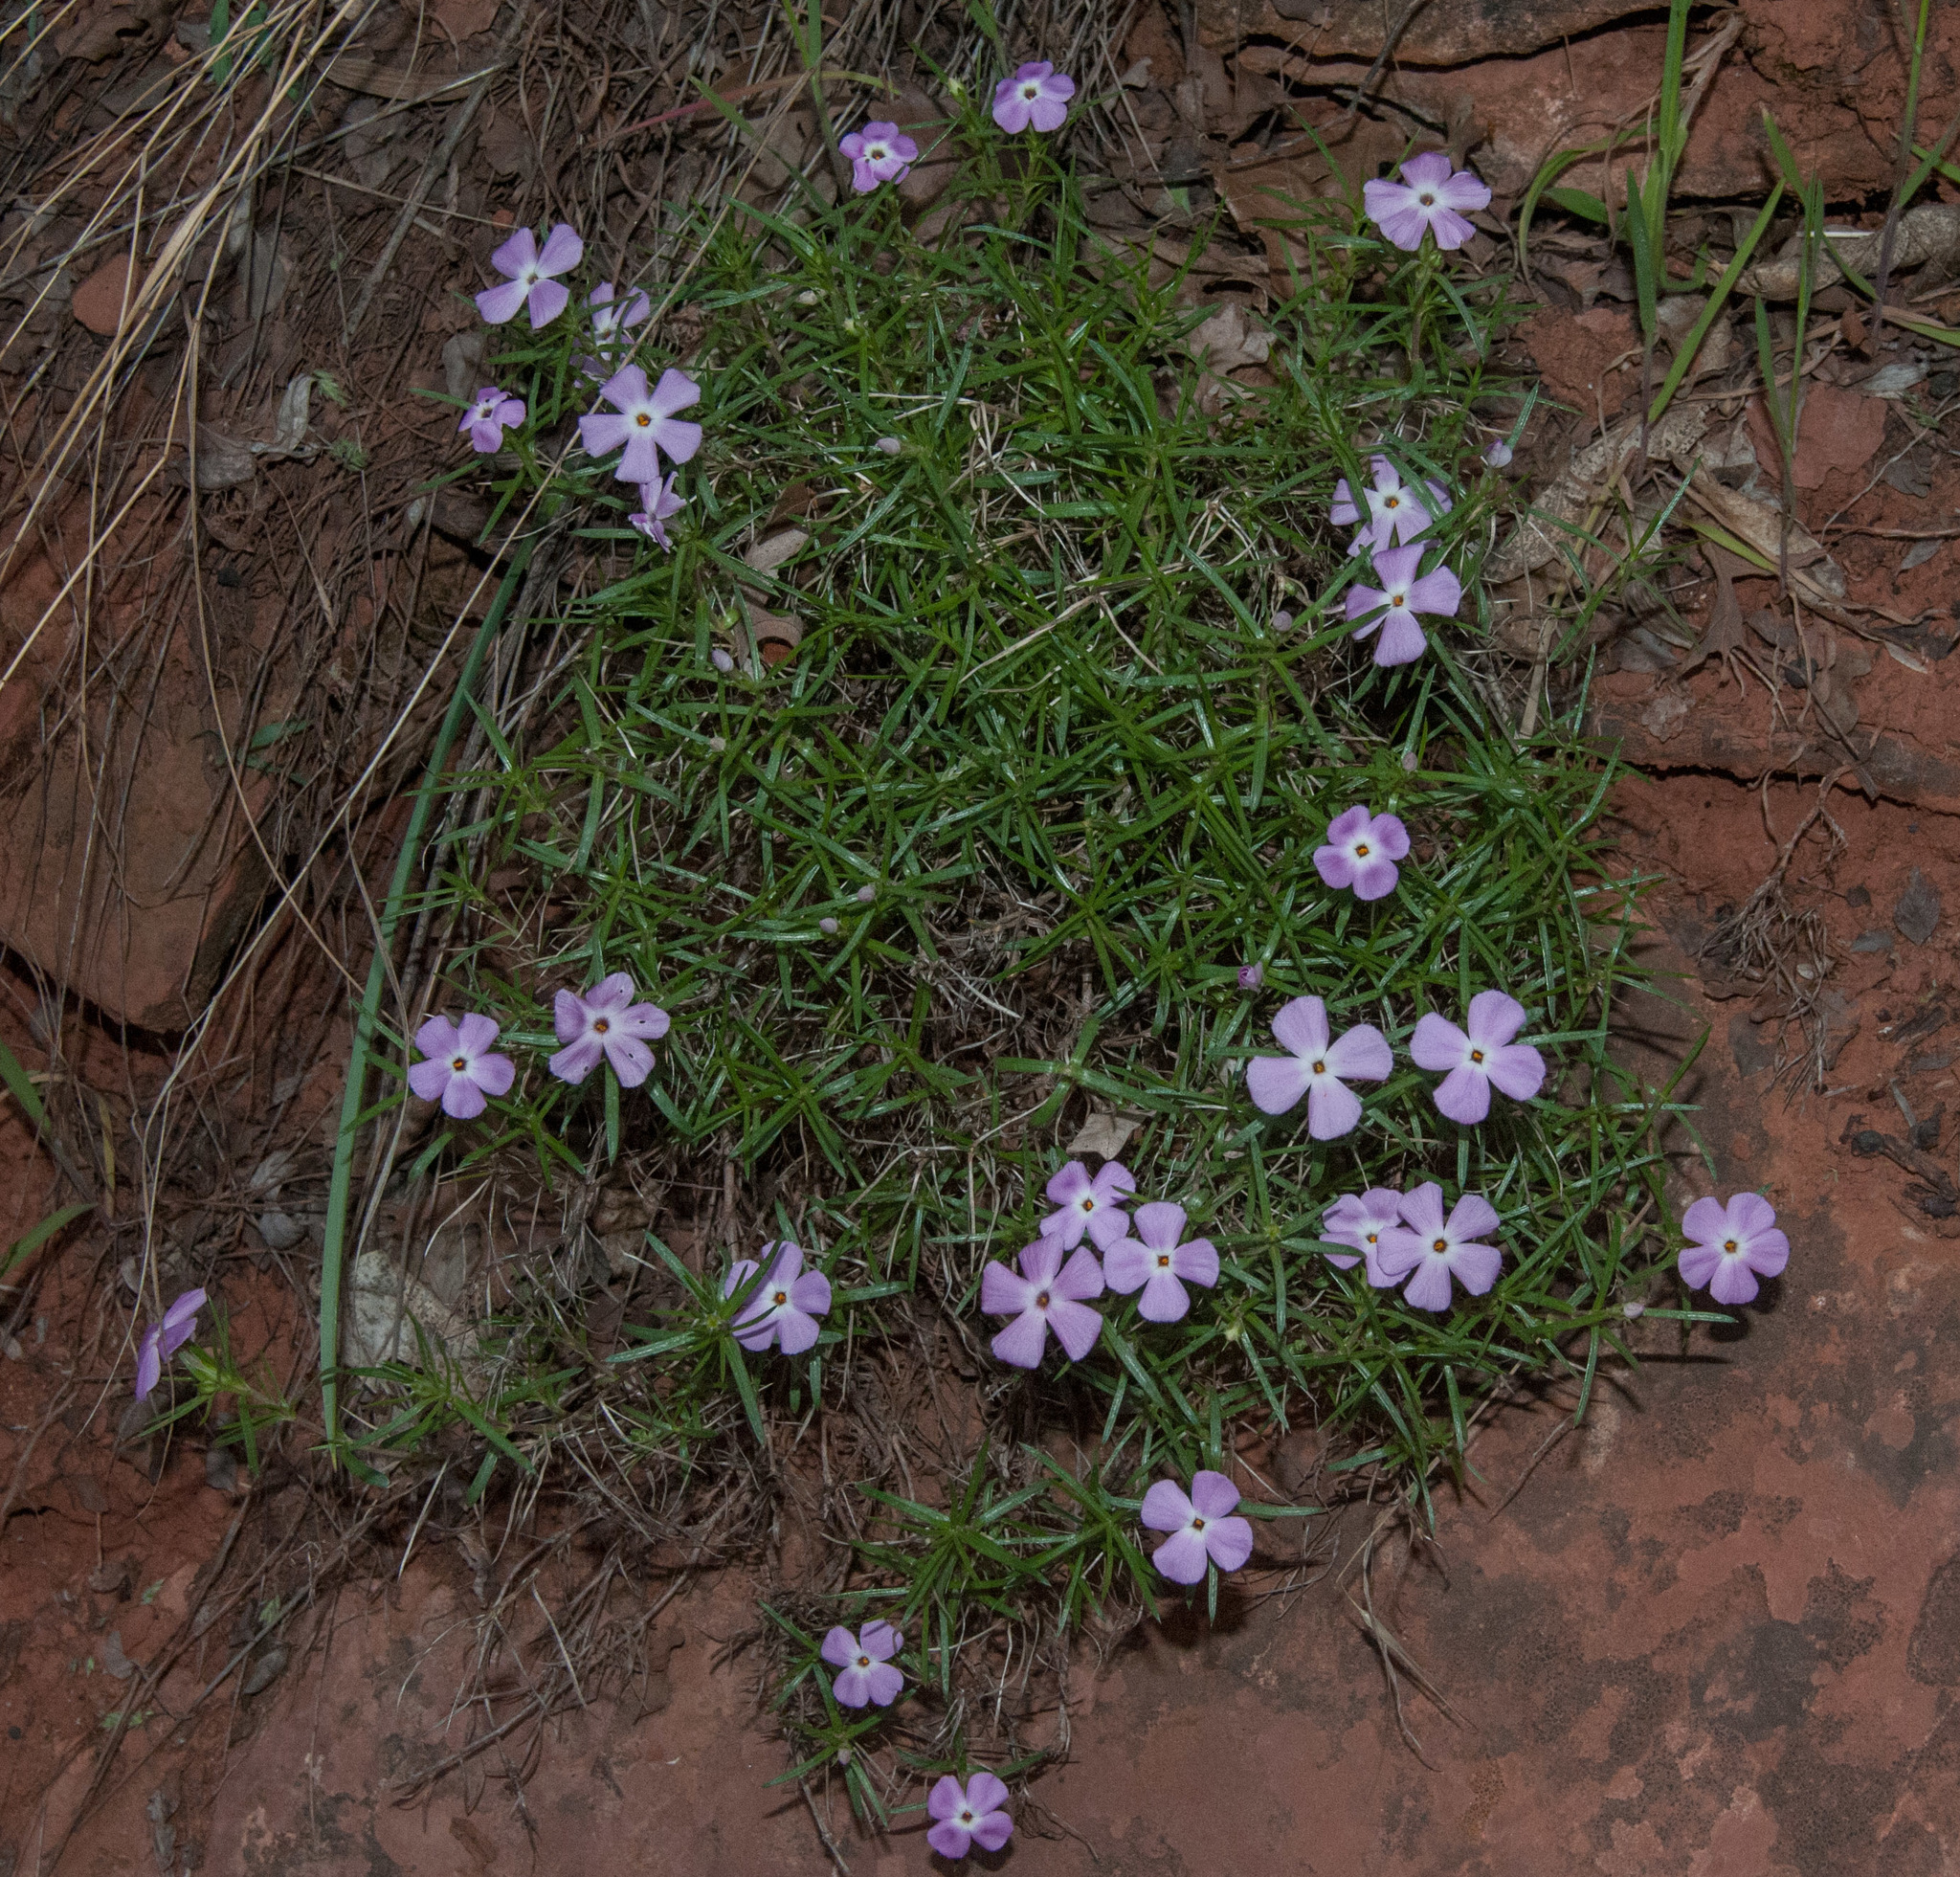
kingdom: Plantae
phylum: Tracheophyta
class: Magnoliopsida
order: Ericales
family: Polemoniaceae
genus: Phlox
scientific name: Phlox austromontana
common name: Desert phlox
